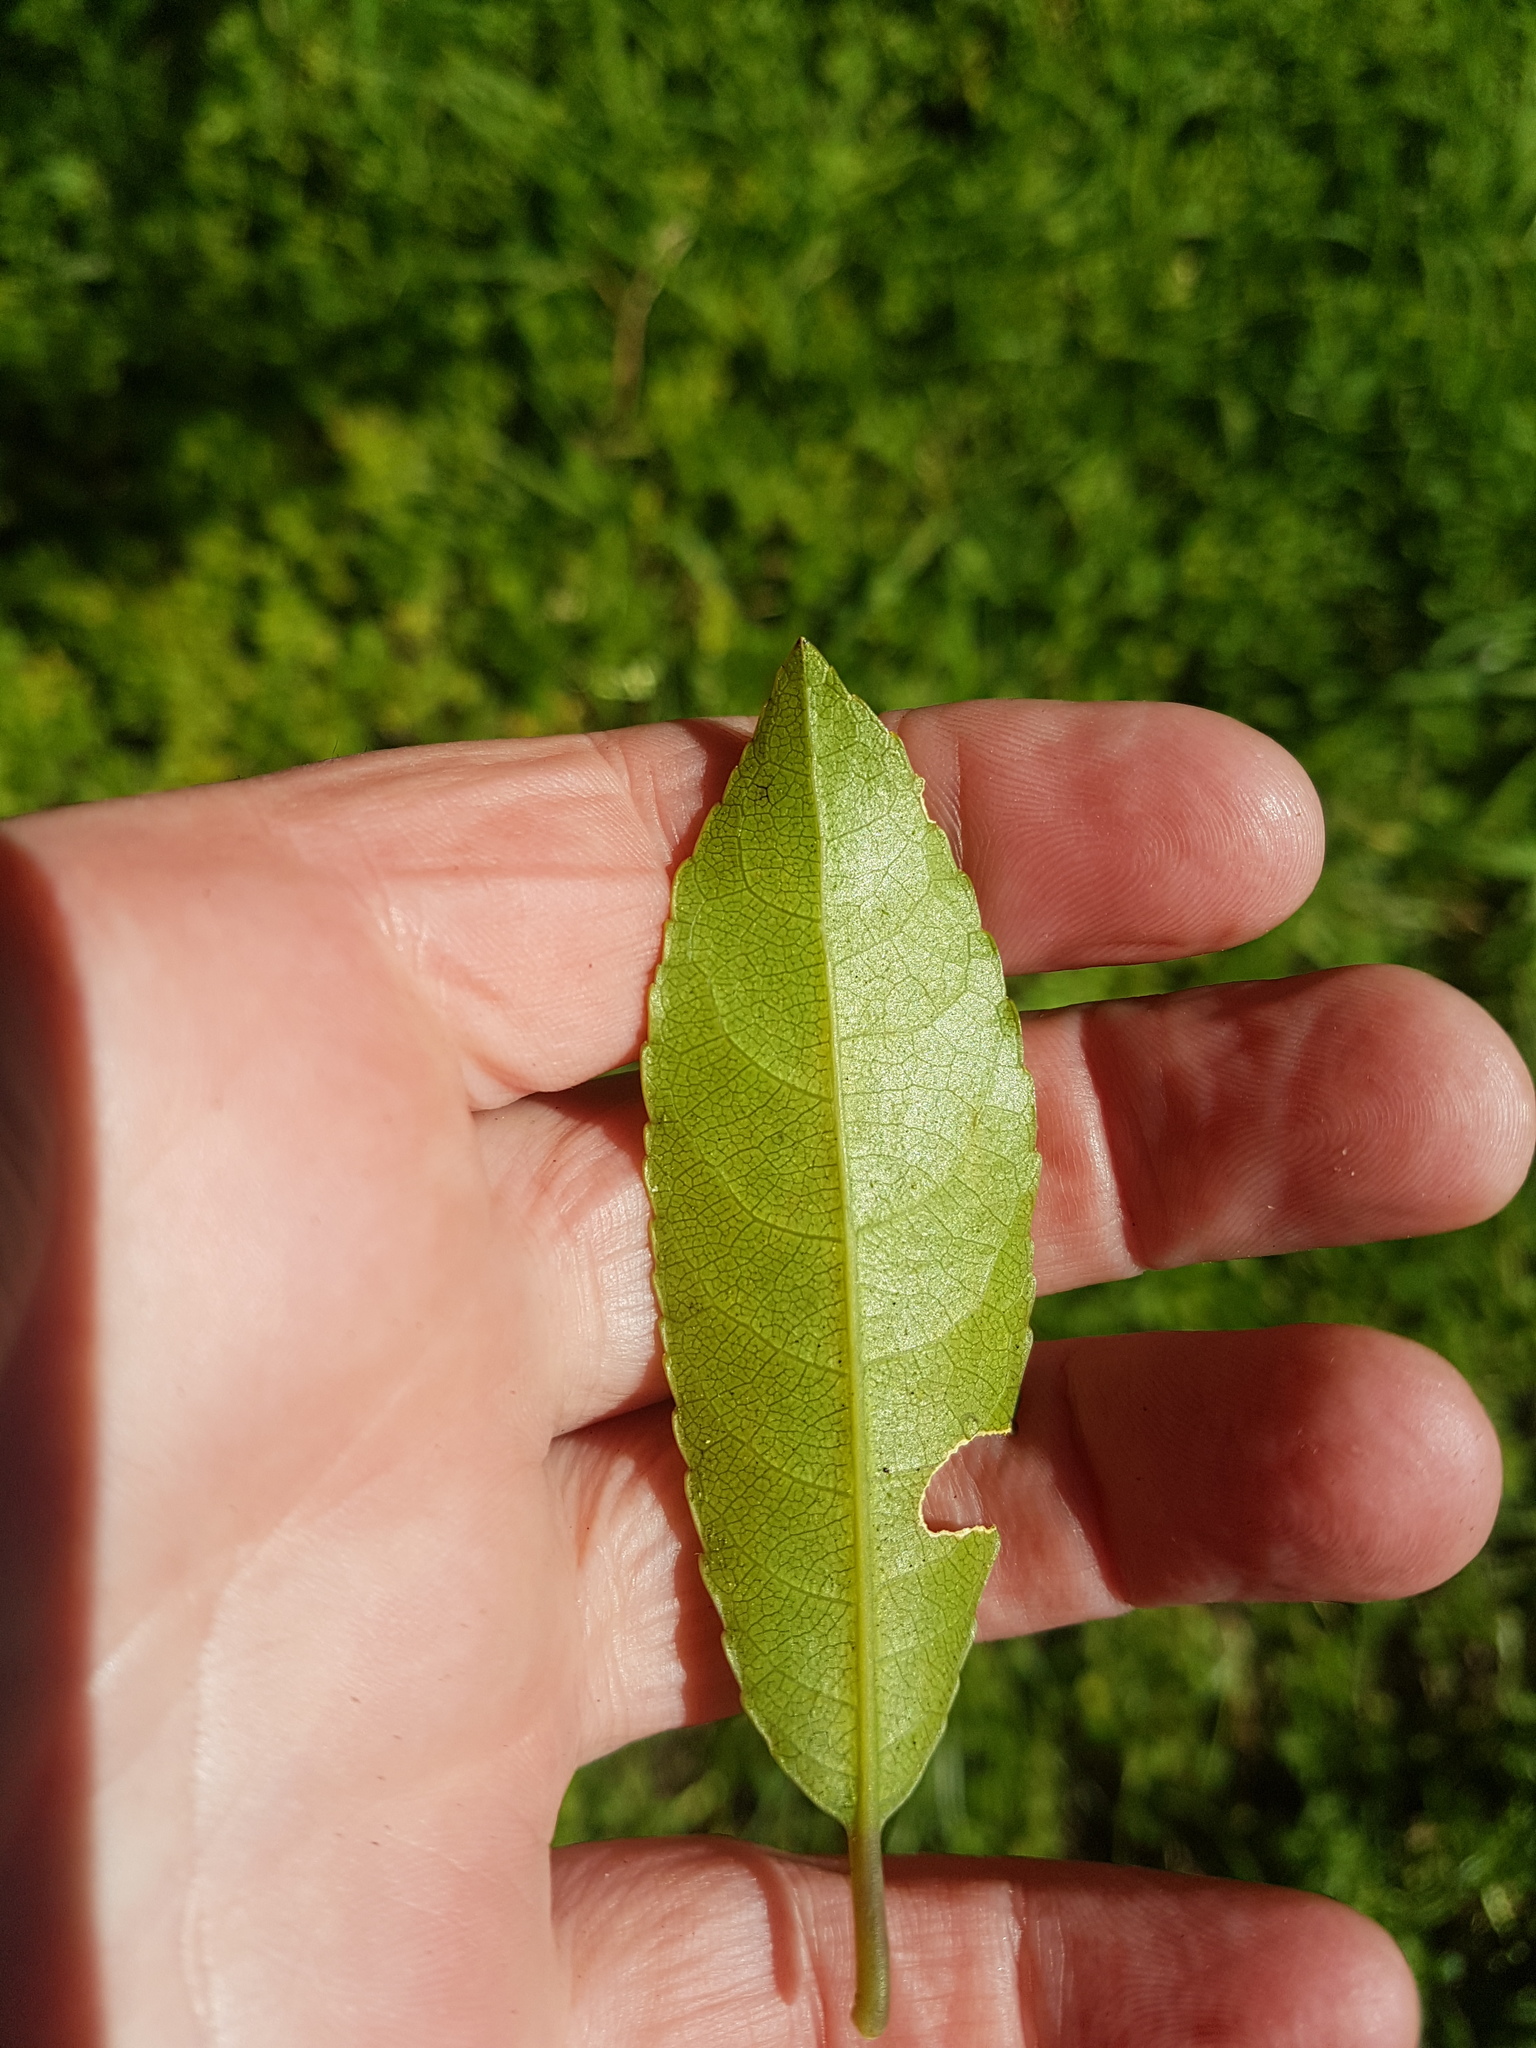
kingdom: Plantae
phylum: Tracheophyta
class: Magnoliopsida
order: Malpighiales
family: Violaceae
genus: Melicytus
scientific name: Melicytus ramiflorus
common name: Mahoe
